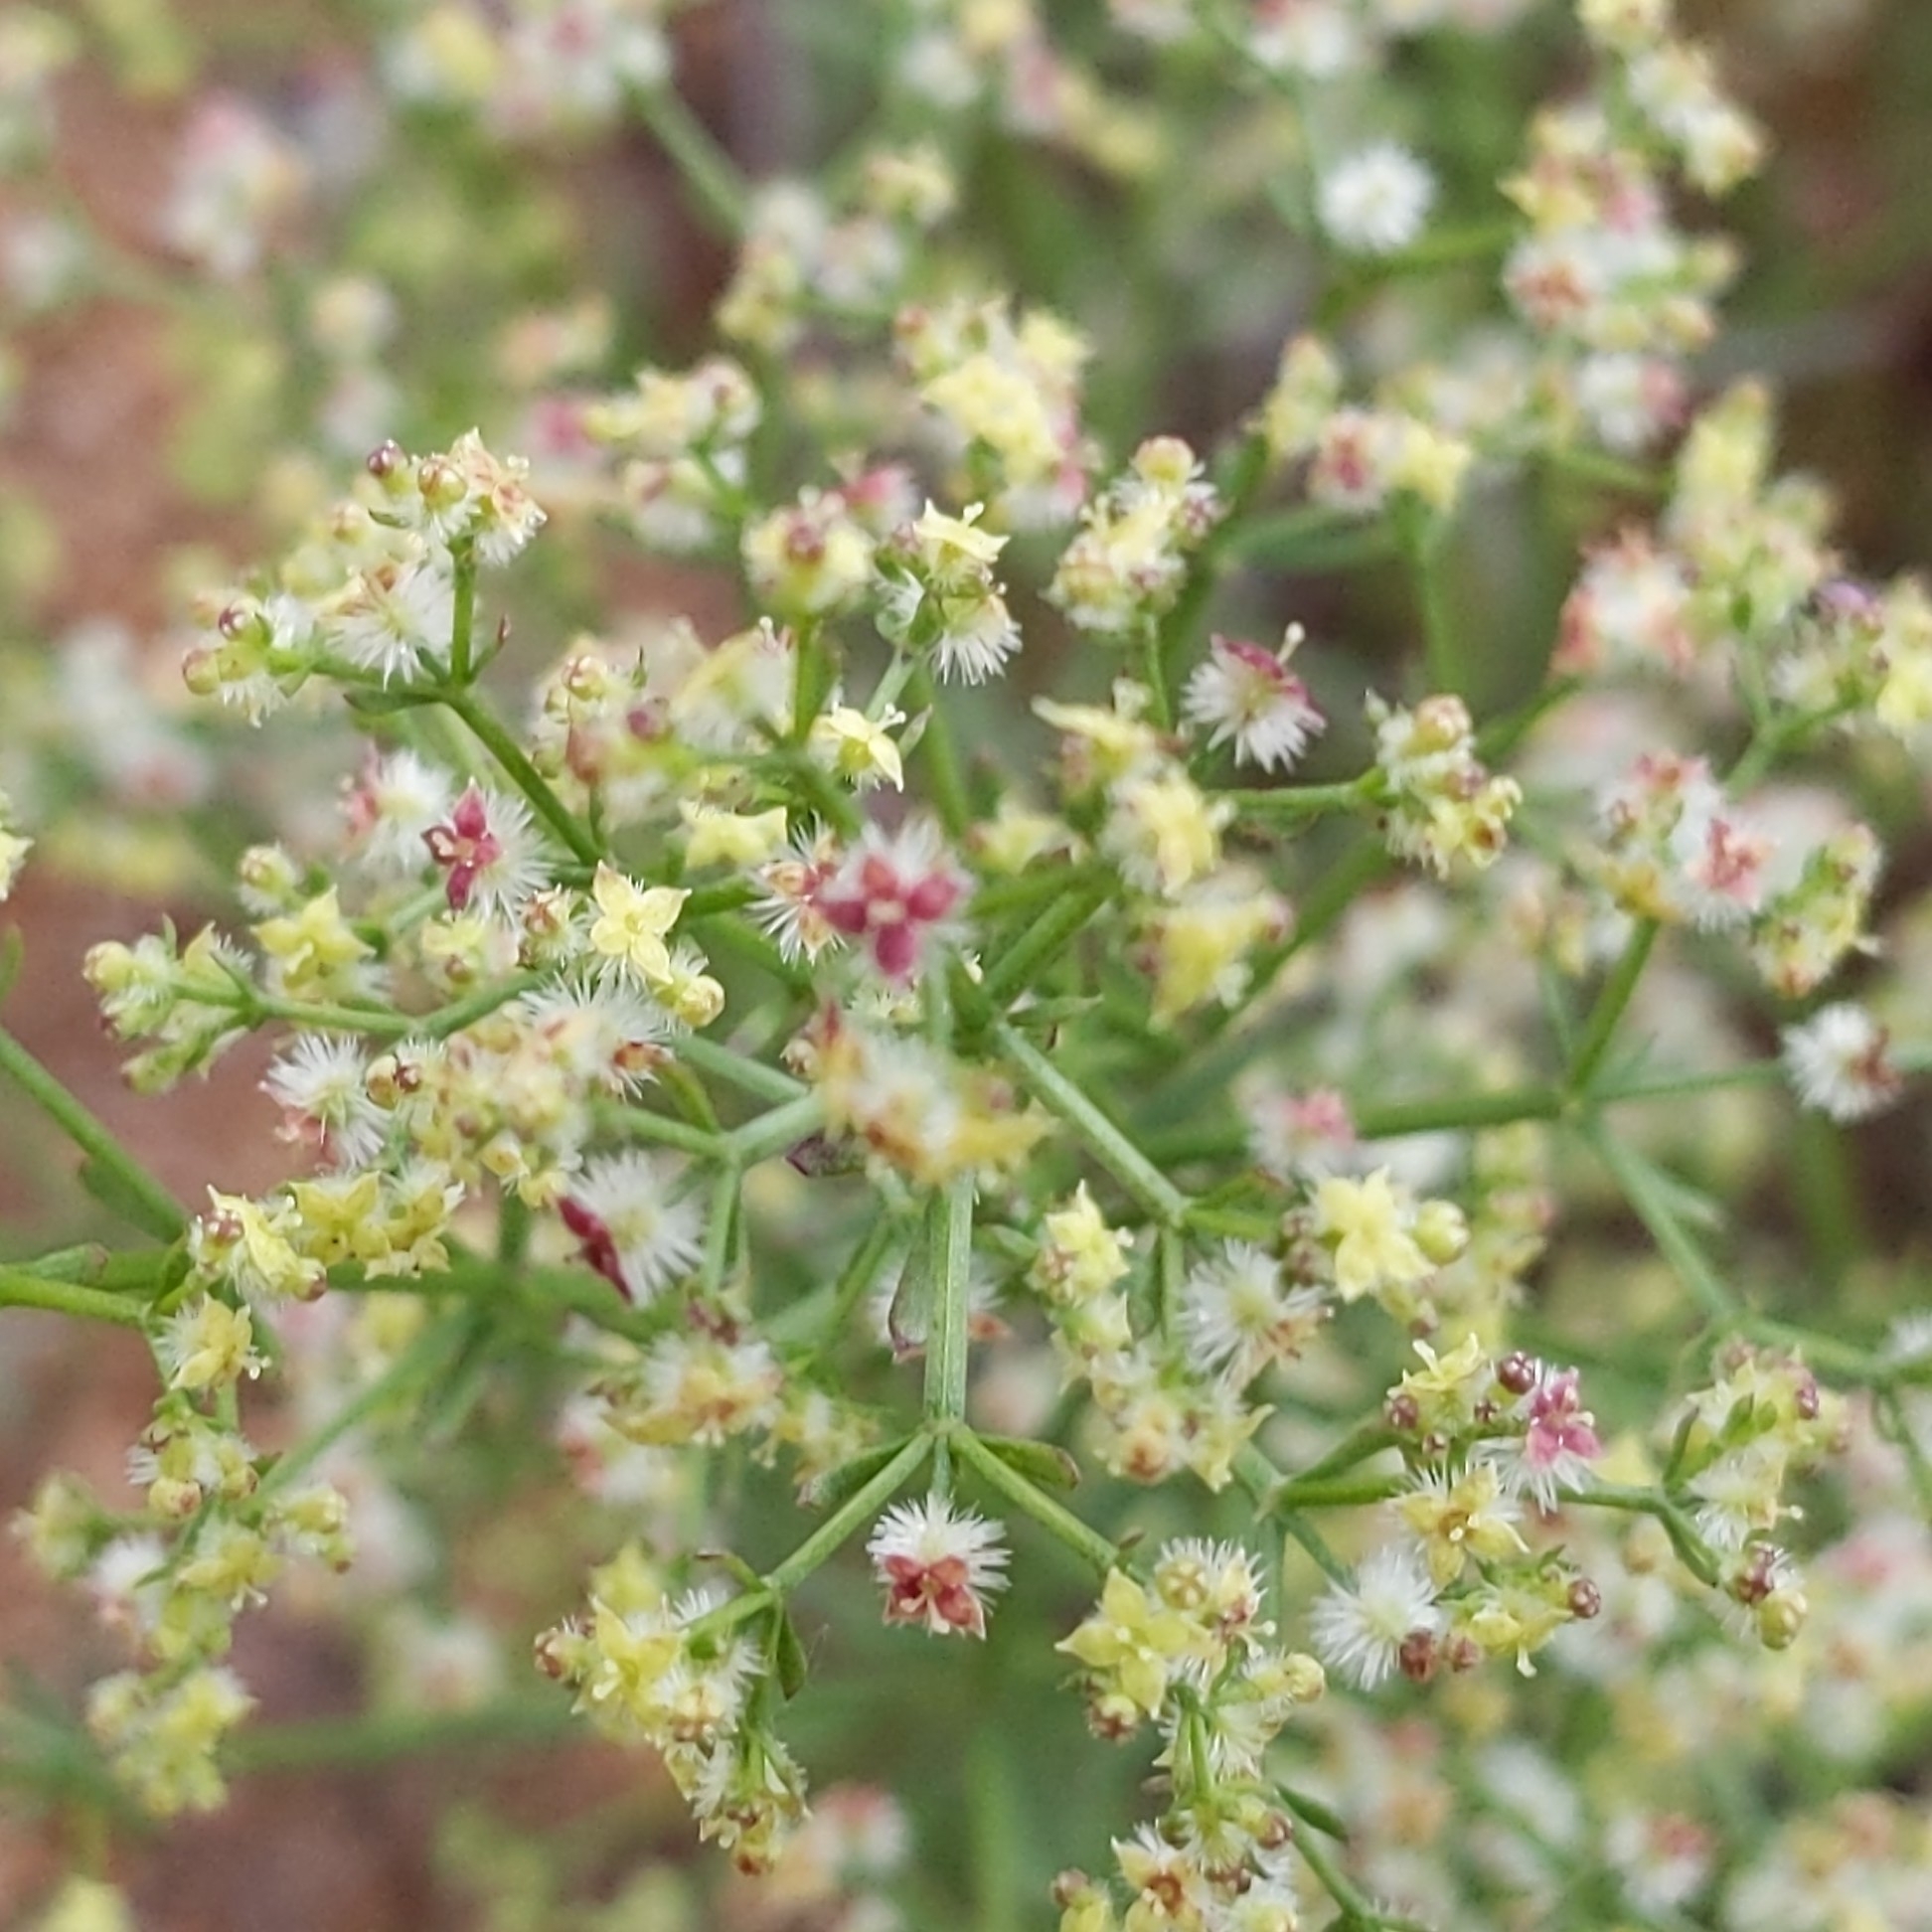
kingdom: Plantae
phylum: Tracheophyta
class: Magnoliopsida
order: Gentianales
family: Rubiaceae
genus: Galium
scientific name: Galium angustifolium
